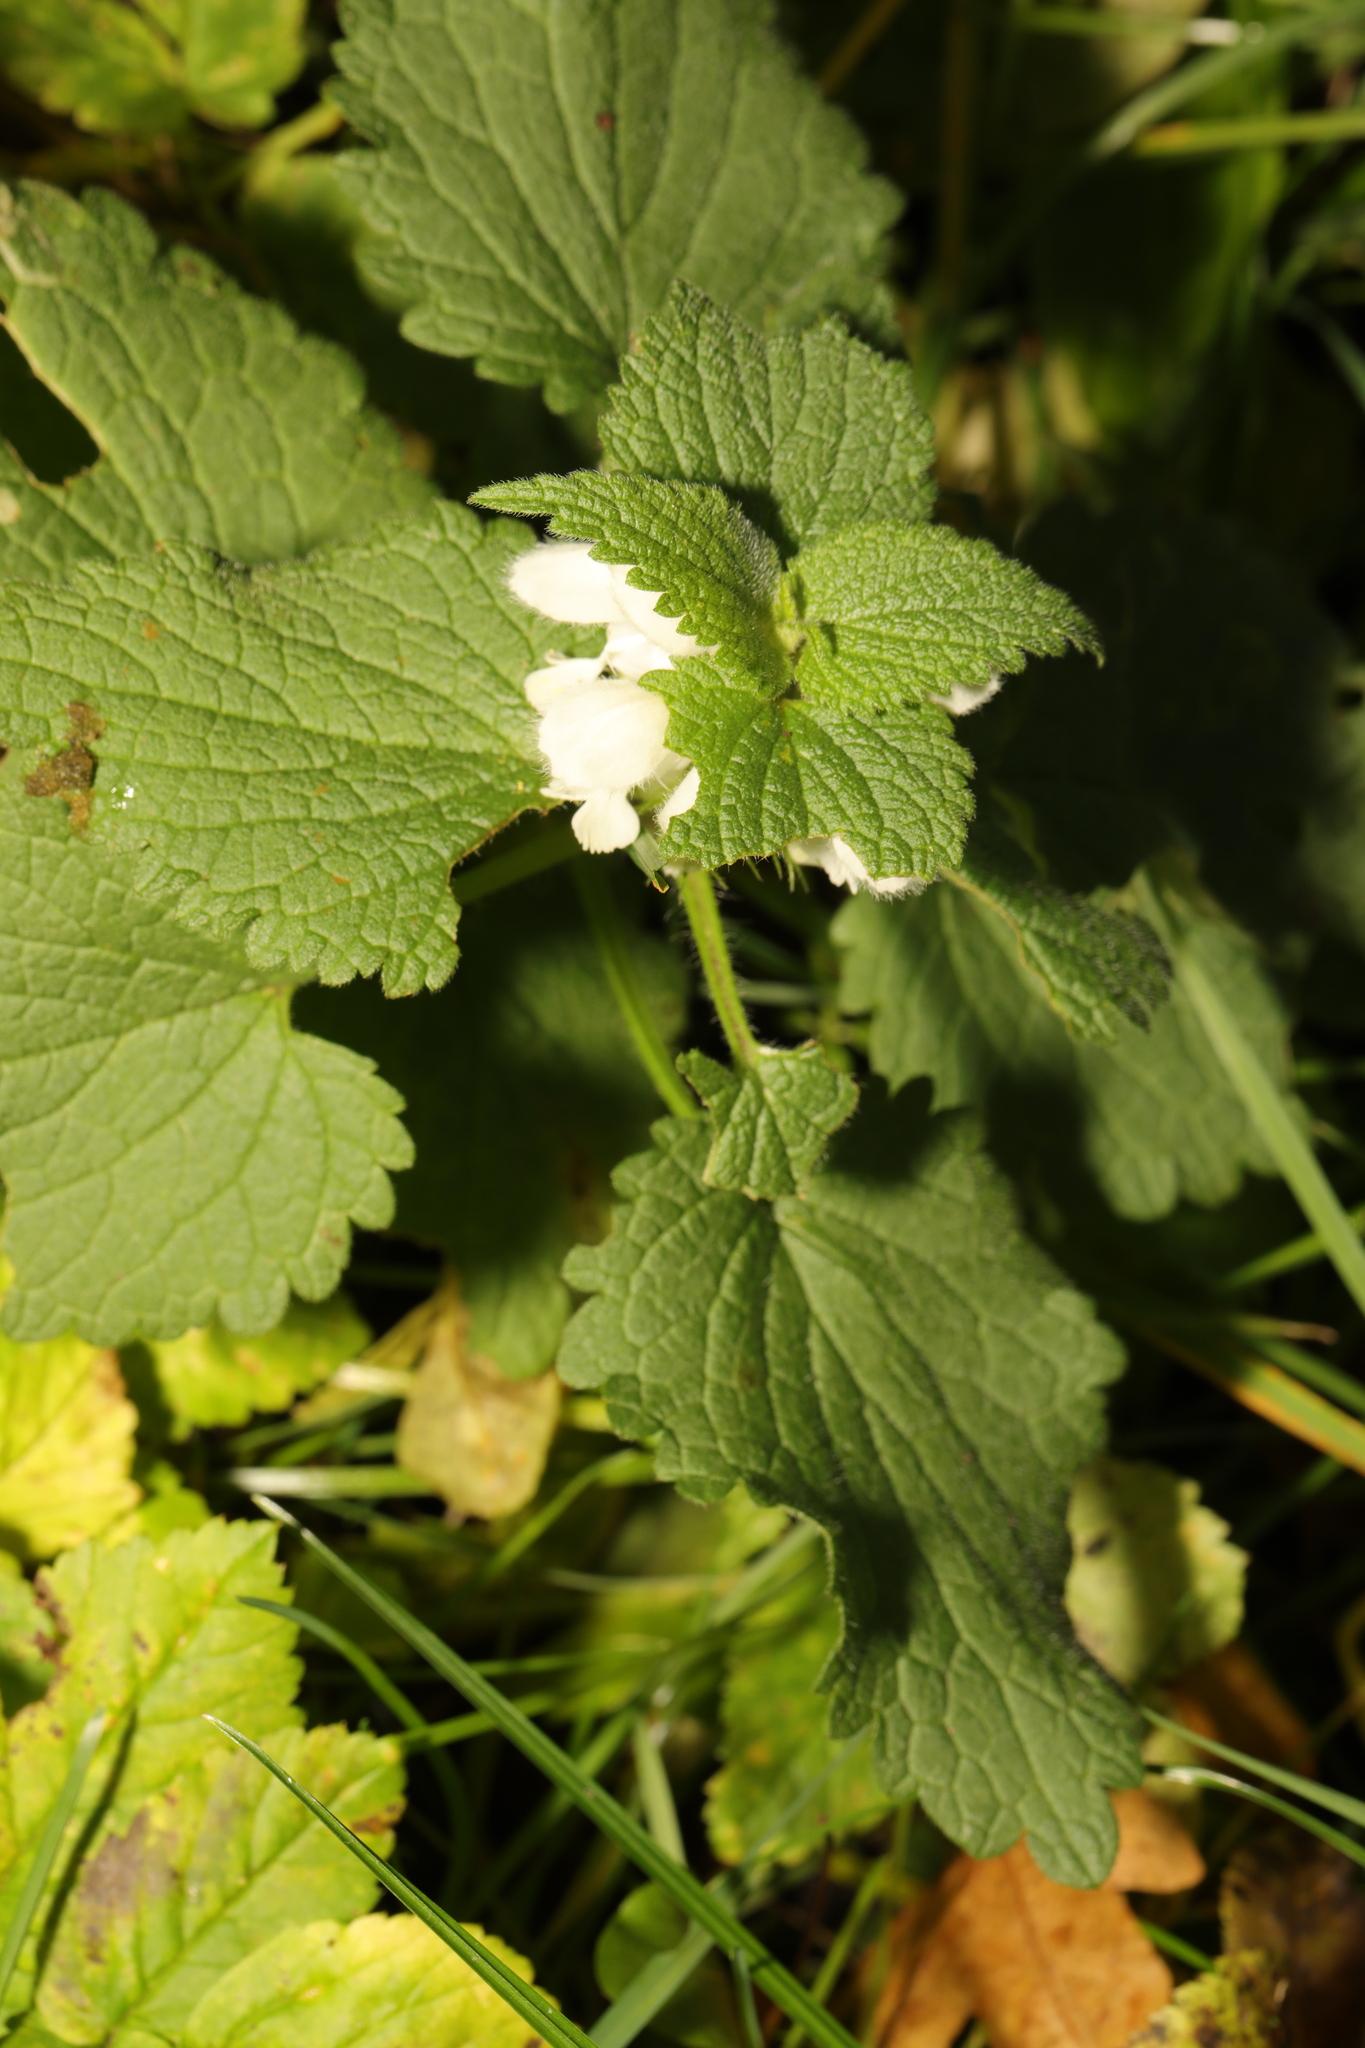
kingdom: Plantae
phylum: Tracheophyta
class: Magnoliopsida
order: Lamiales
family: Lamiaceae
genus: Lamium
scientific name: Lamium album
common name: White dead-nettle
